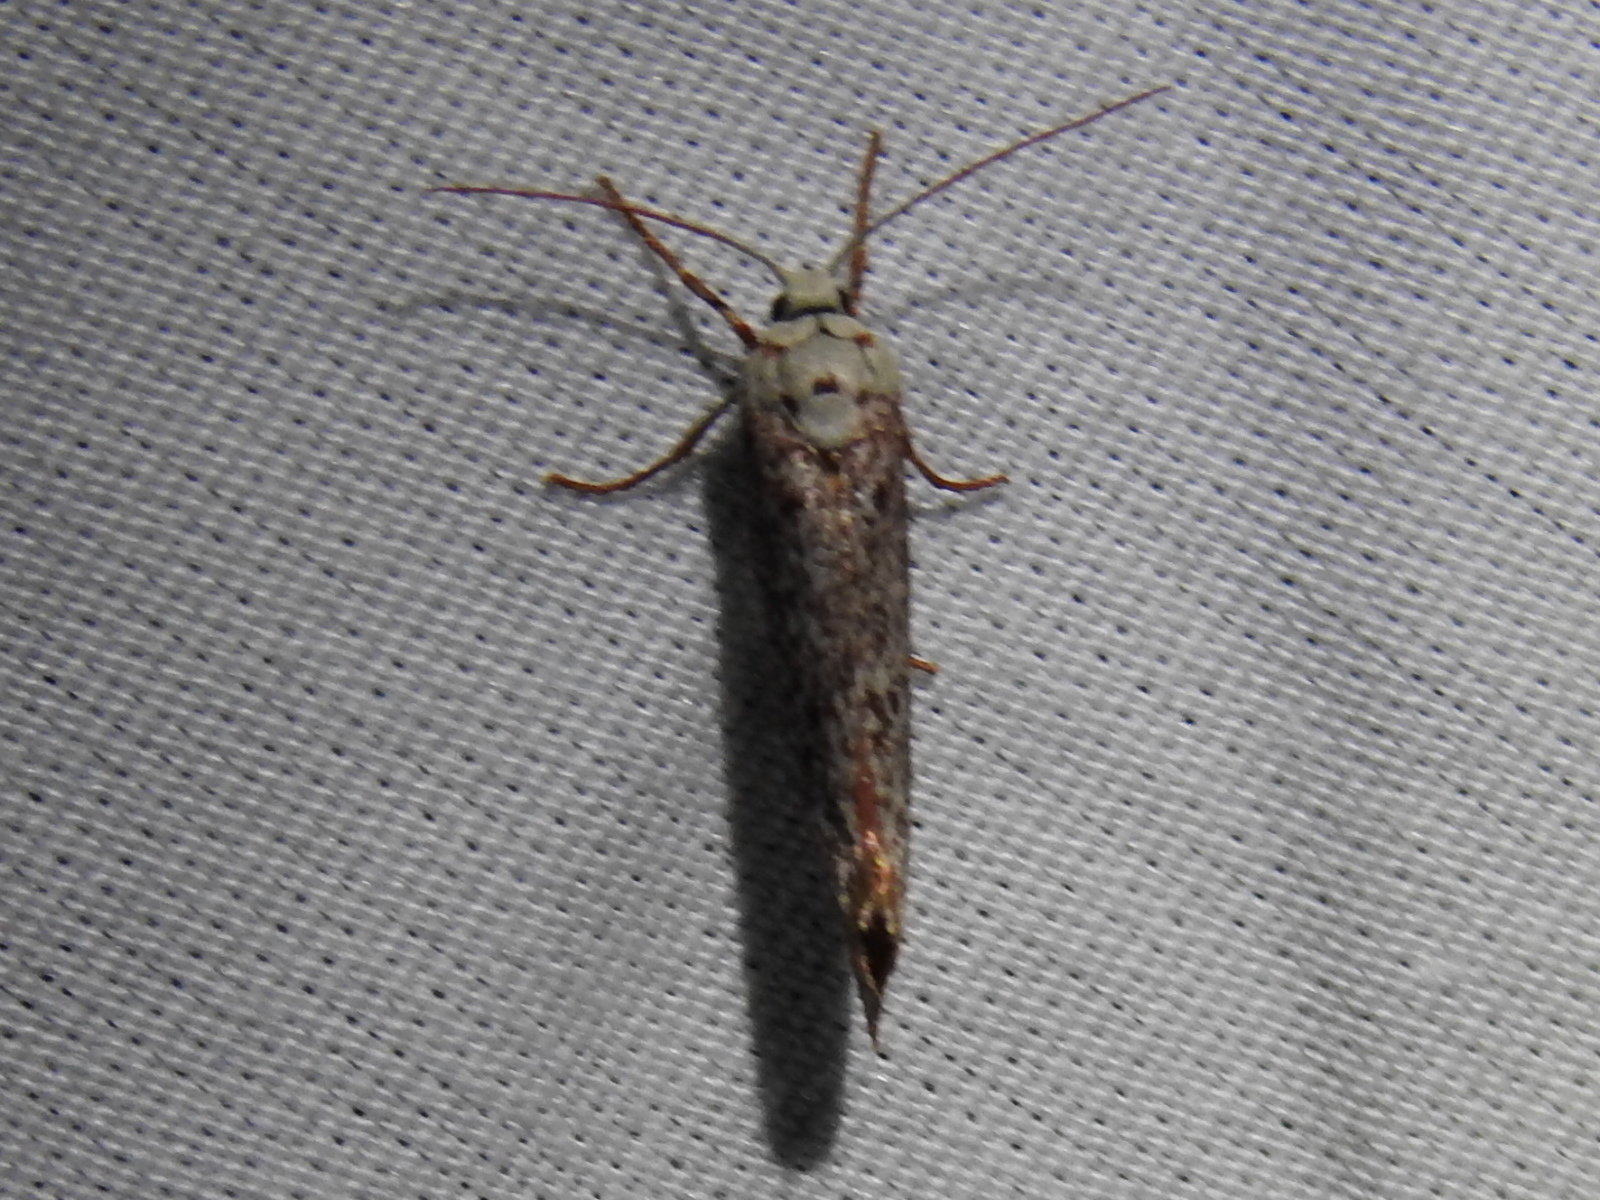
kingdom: Animalia
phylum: Arthropoda
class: Insecta
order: Lepidoptera
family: Lacturidae
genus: Lactura
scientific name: Lactura
